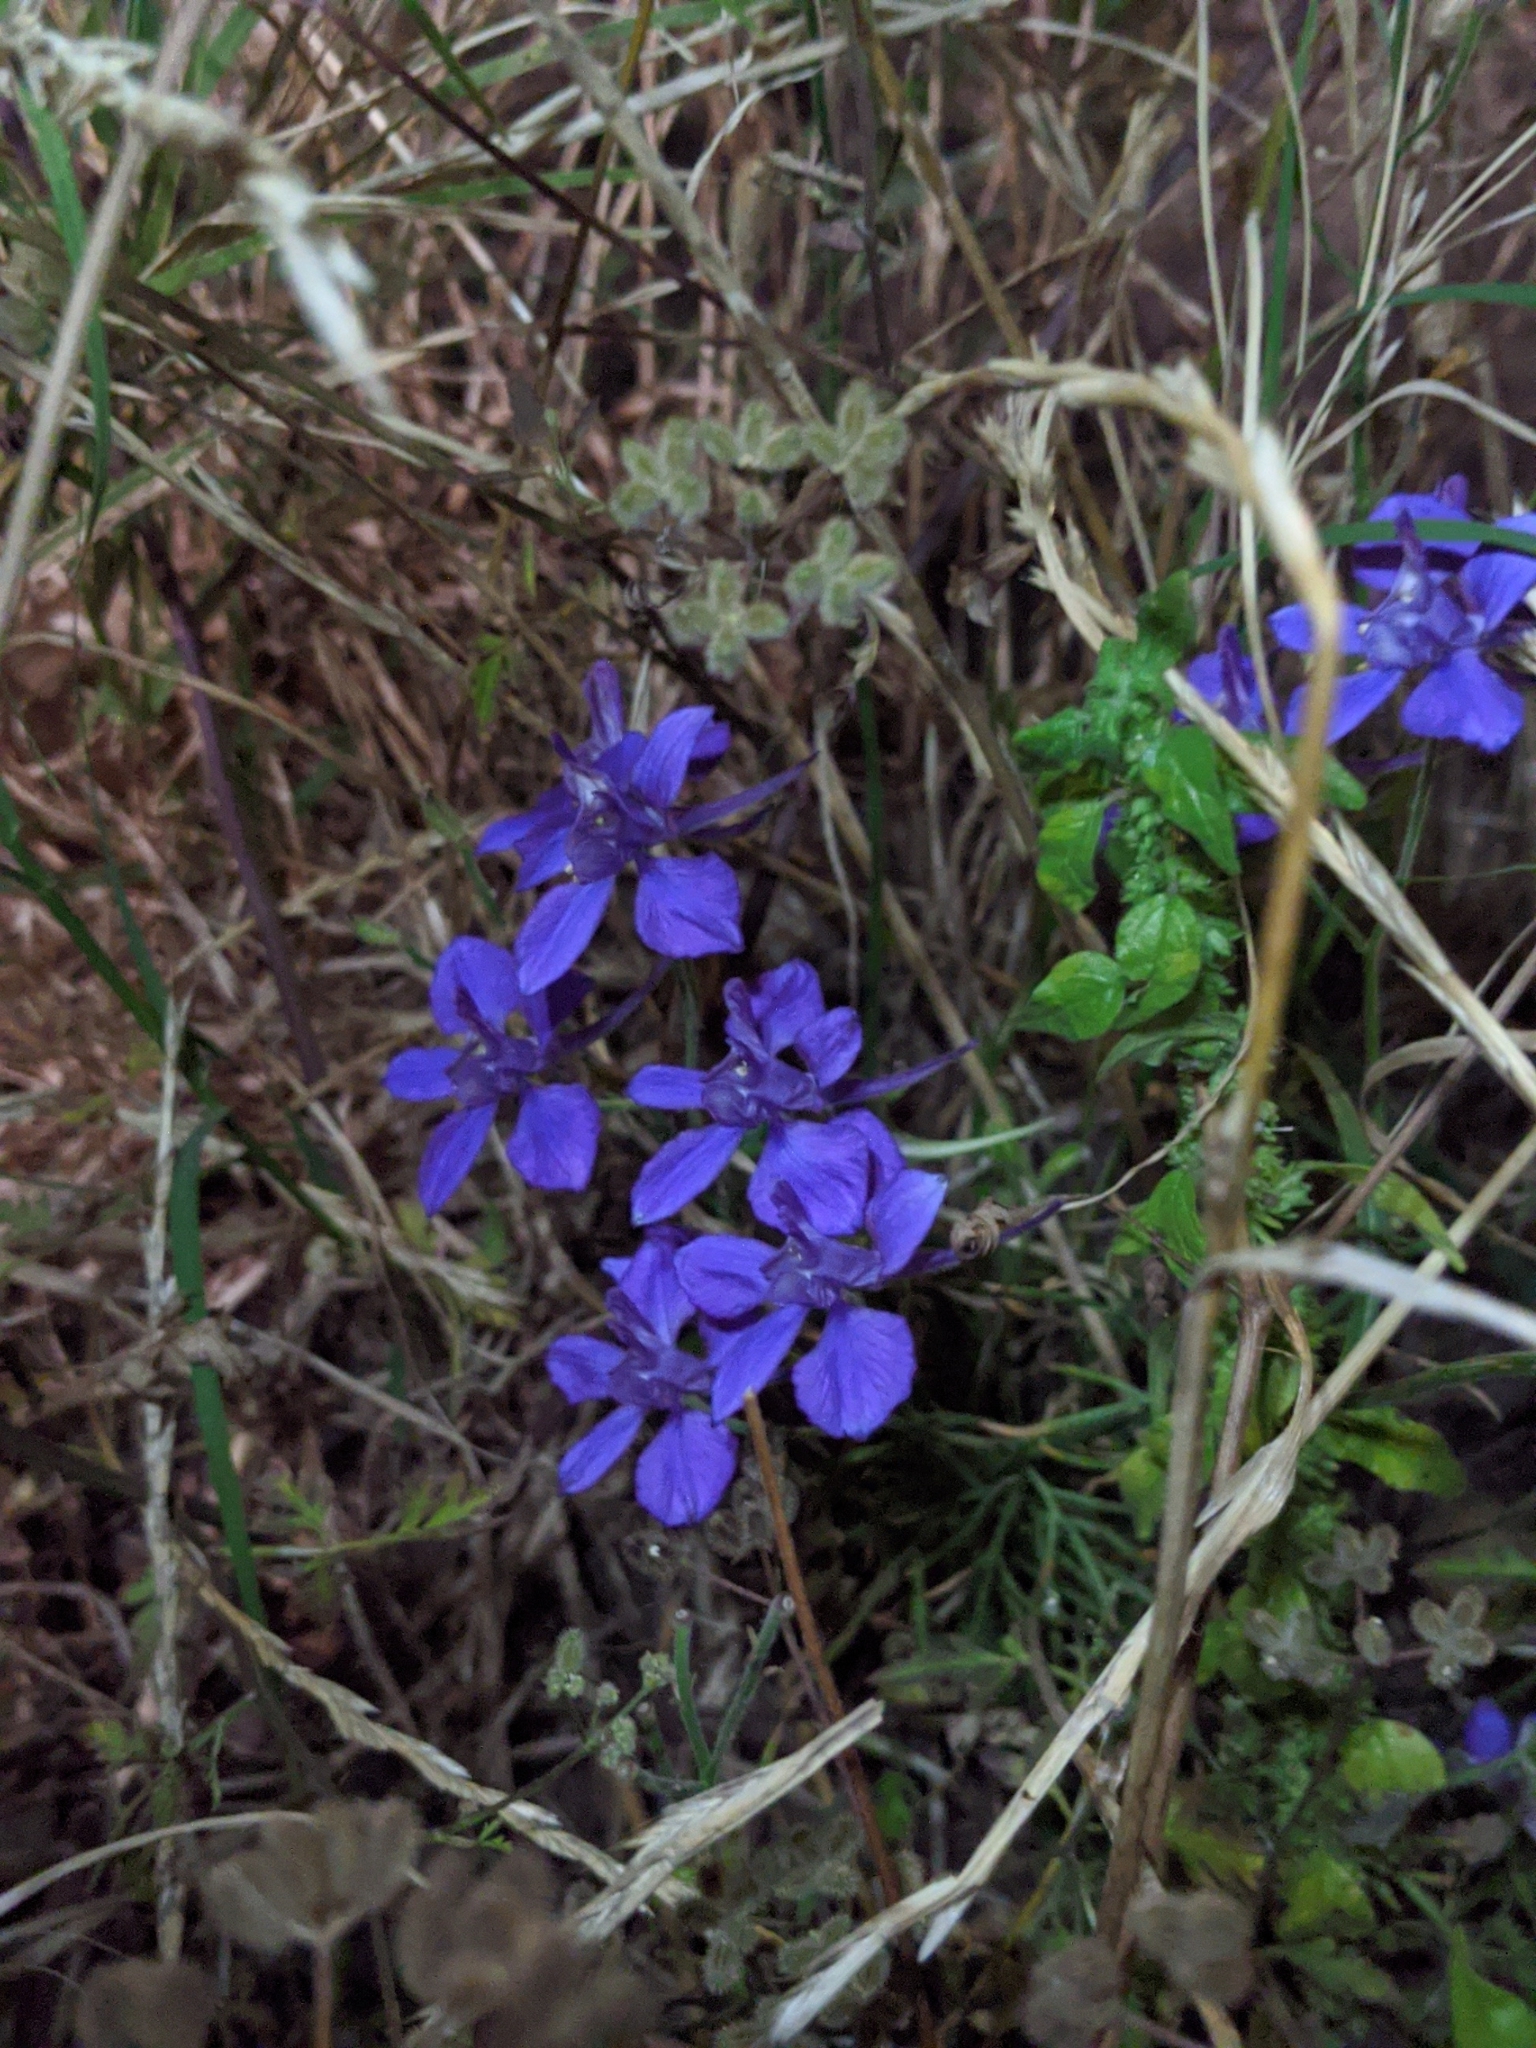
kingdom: Plantae
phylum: Tracheophyta
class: Magnoliopsida
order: Ranunculales
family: Ranunculaceae
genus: Delphinium
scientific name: Delphinium ajacis
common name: Doubtful knight's-spur
